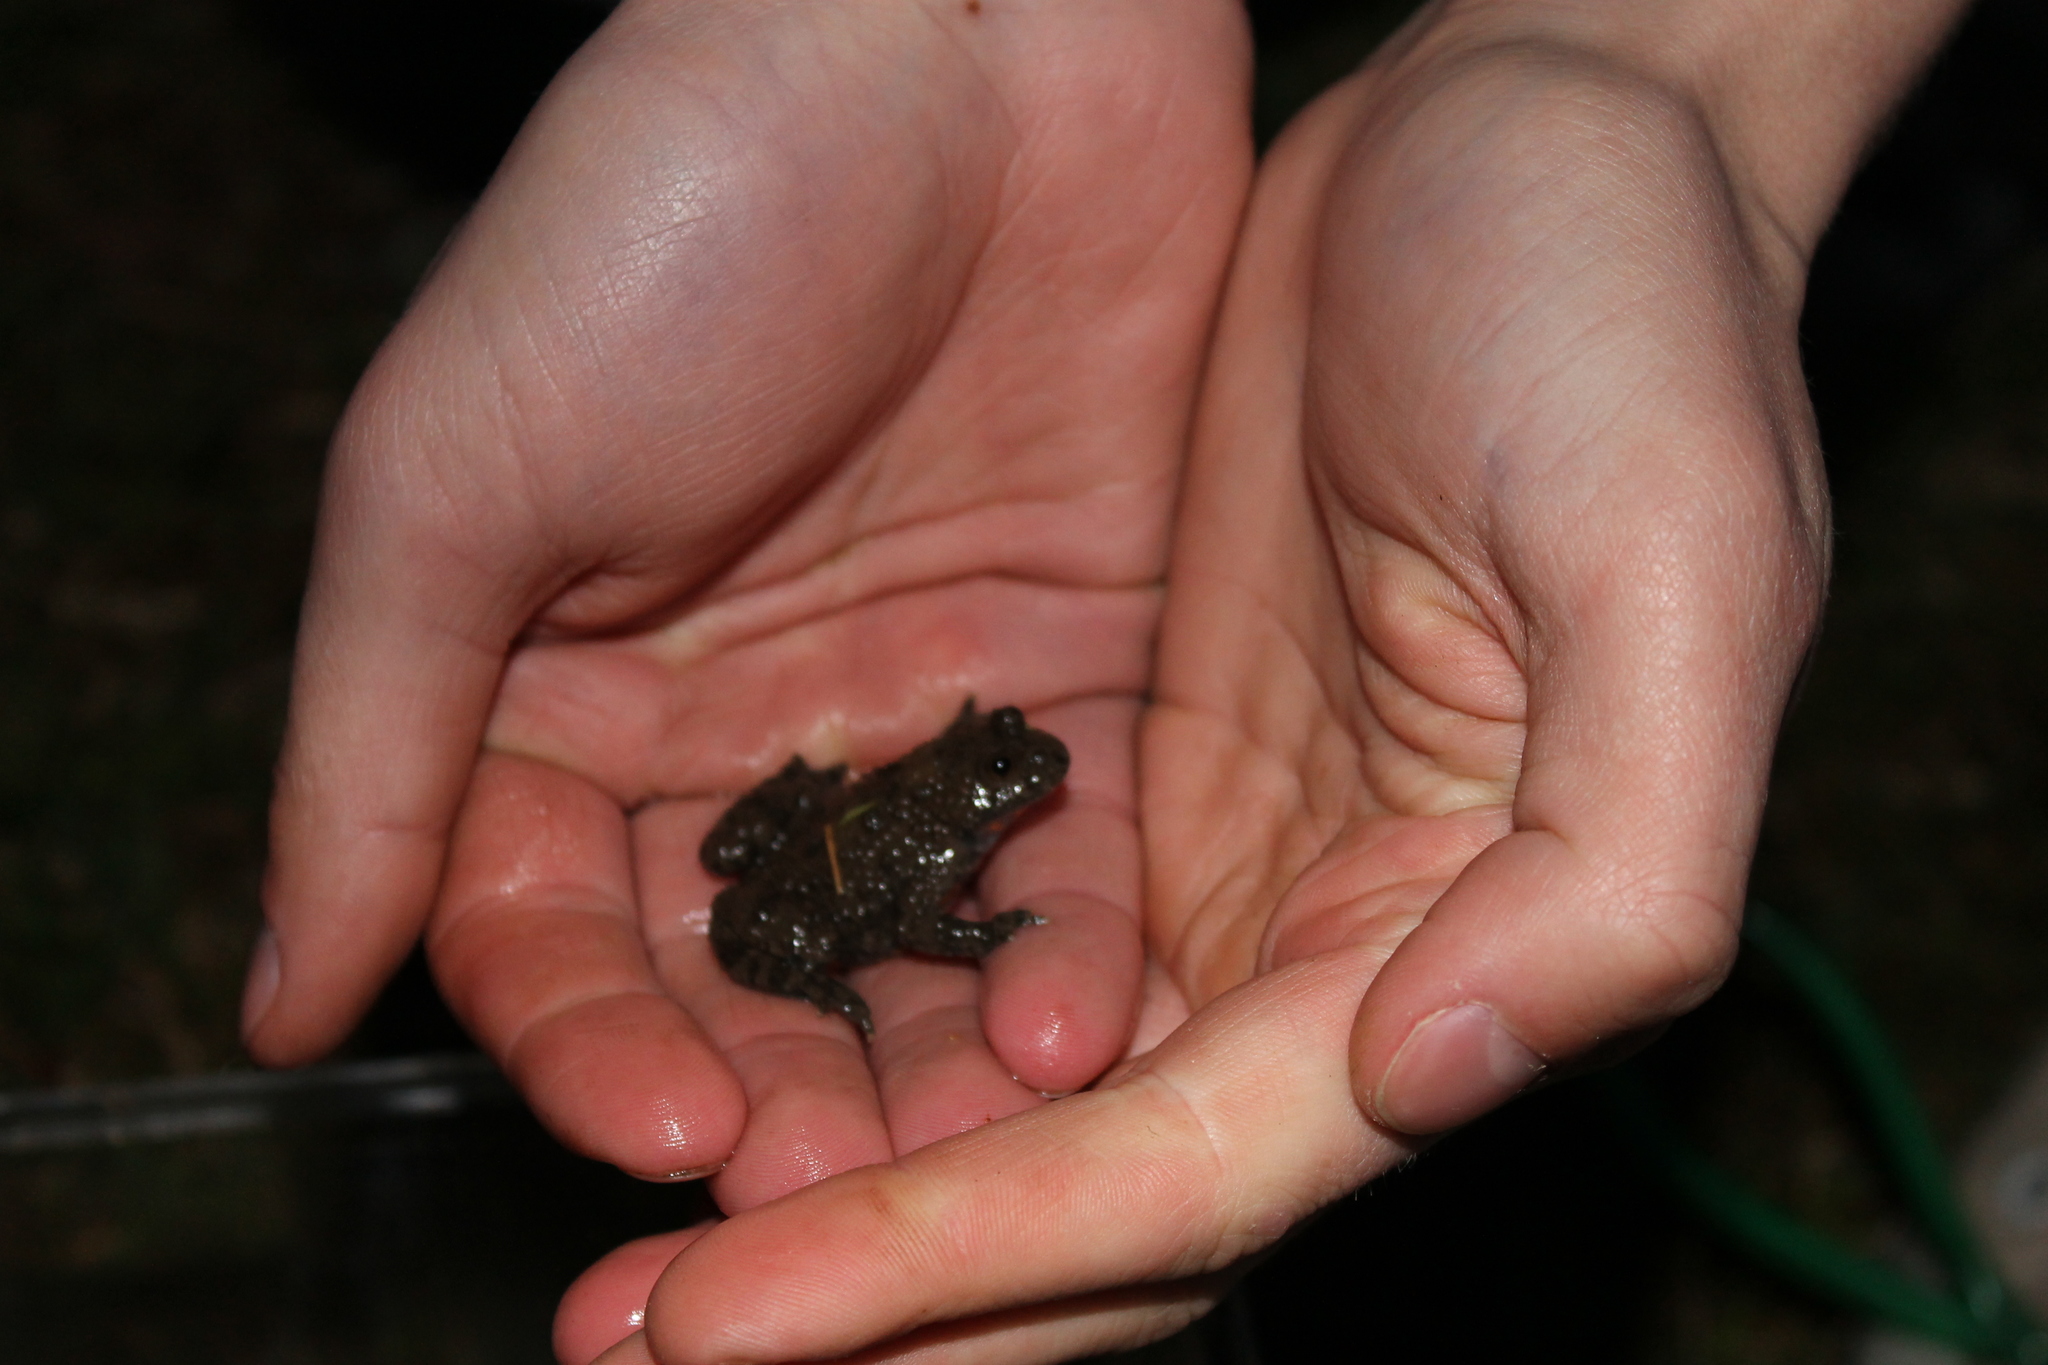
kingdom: Animalia
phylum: Chordata
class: Amphibia
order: Anura
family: Bombinatoridae
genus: Bombina
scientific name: Bombina variegata
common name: Yellow-bellied toad
